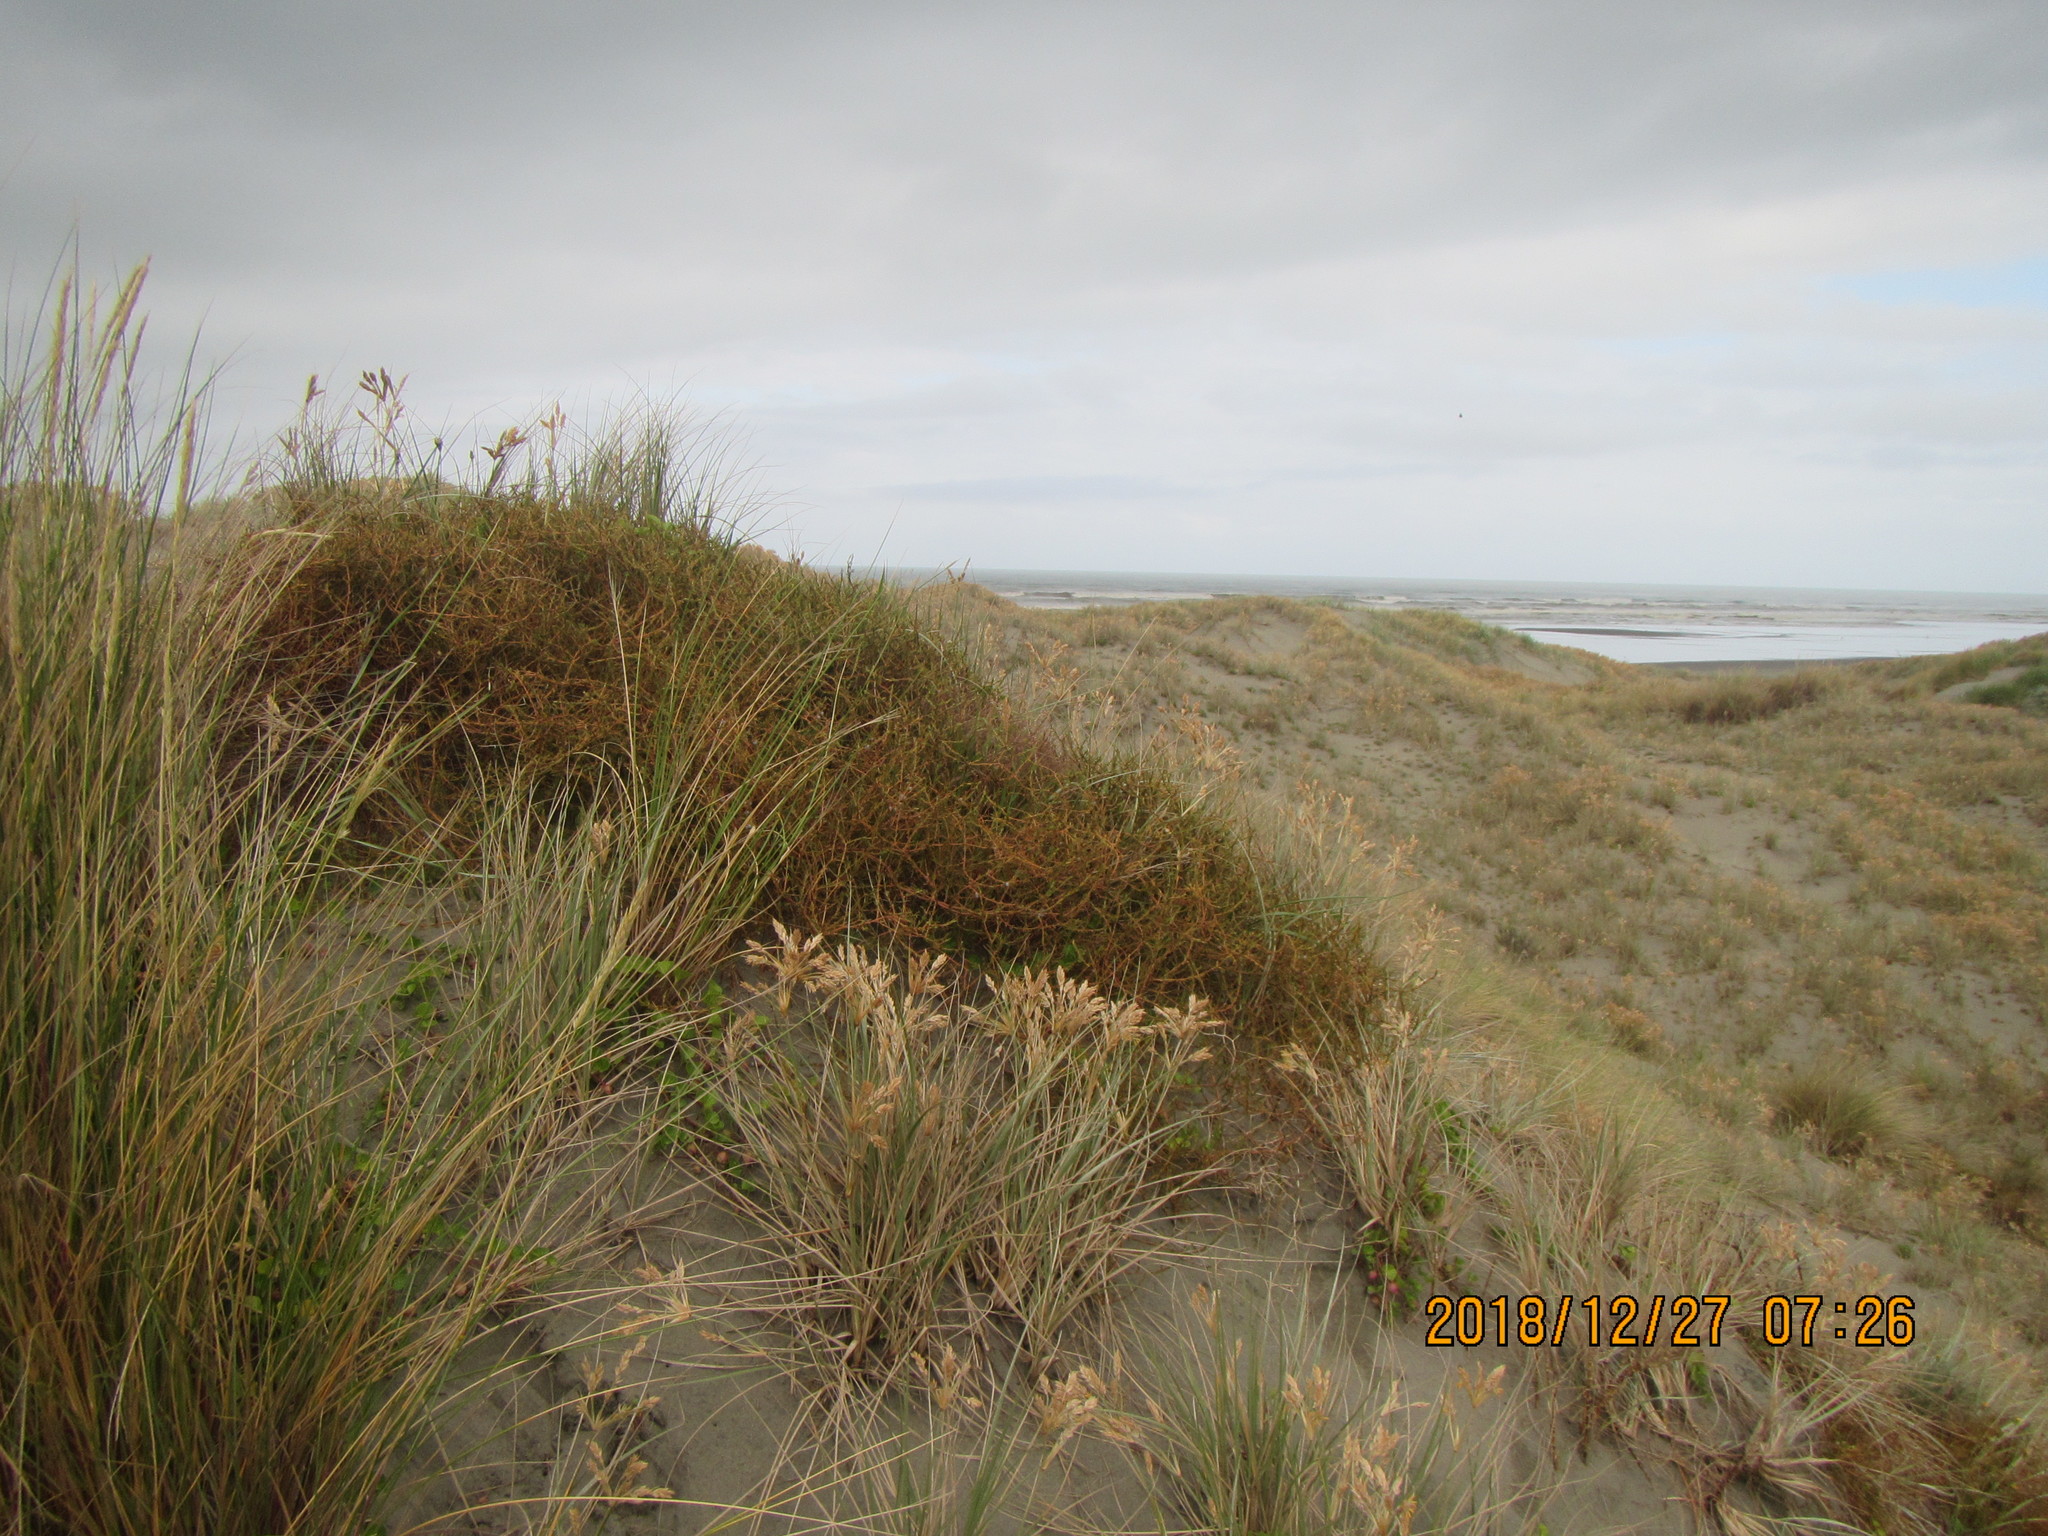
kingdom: Plantae
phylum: Tracheophyta
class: Magnoliopsida
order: Gentianales
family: Rubiaceae
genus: Coprosma
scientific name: Coprosma acerosa
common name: Sand coprosma
